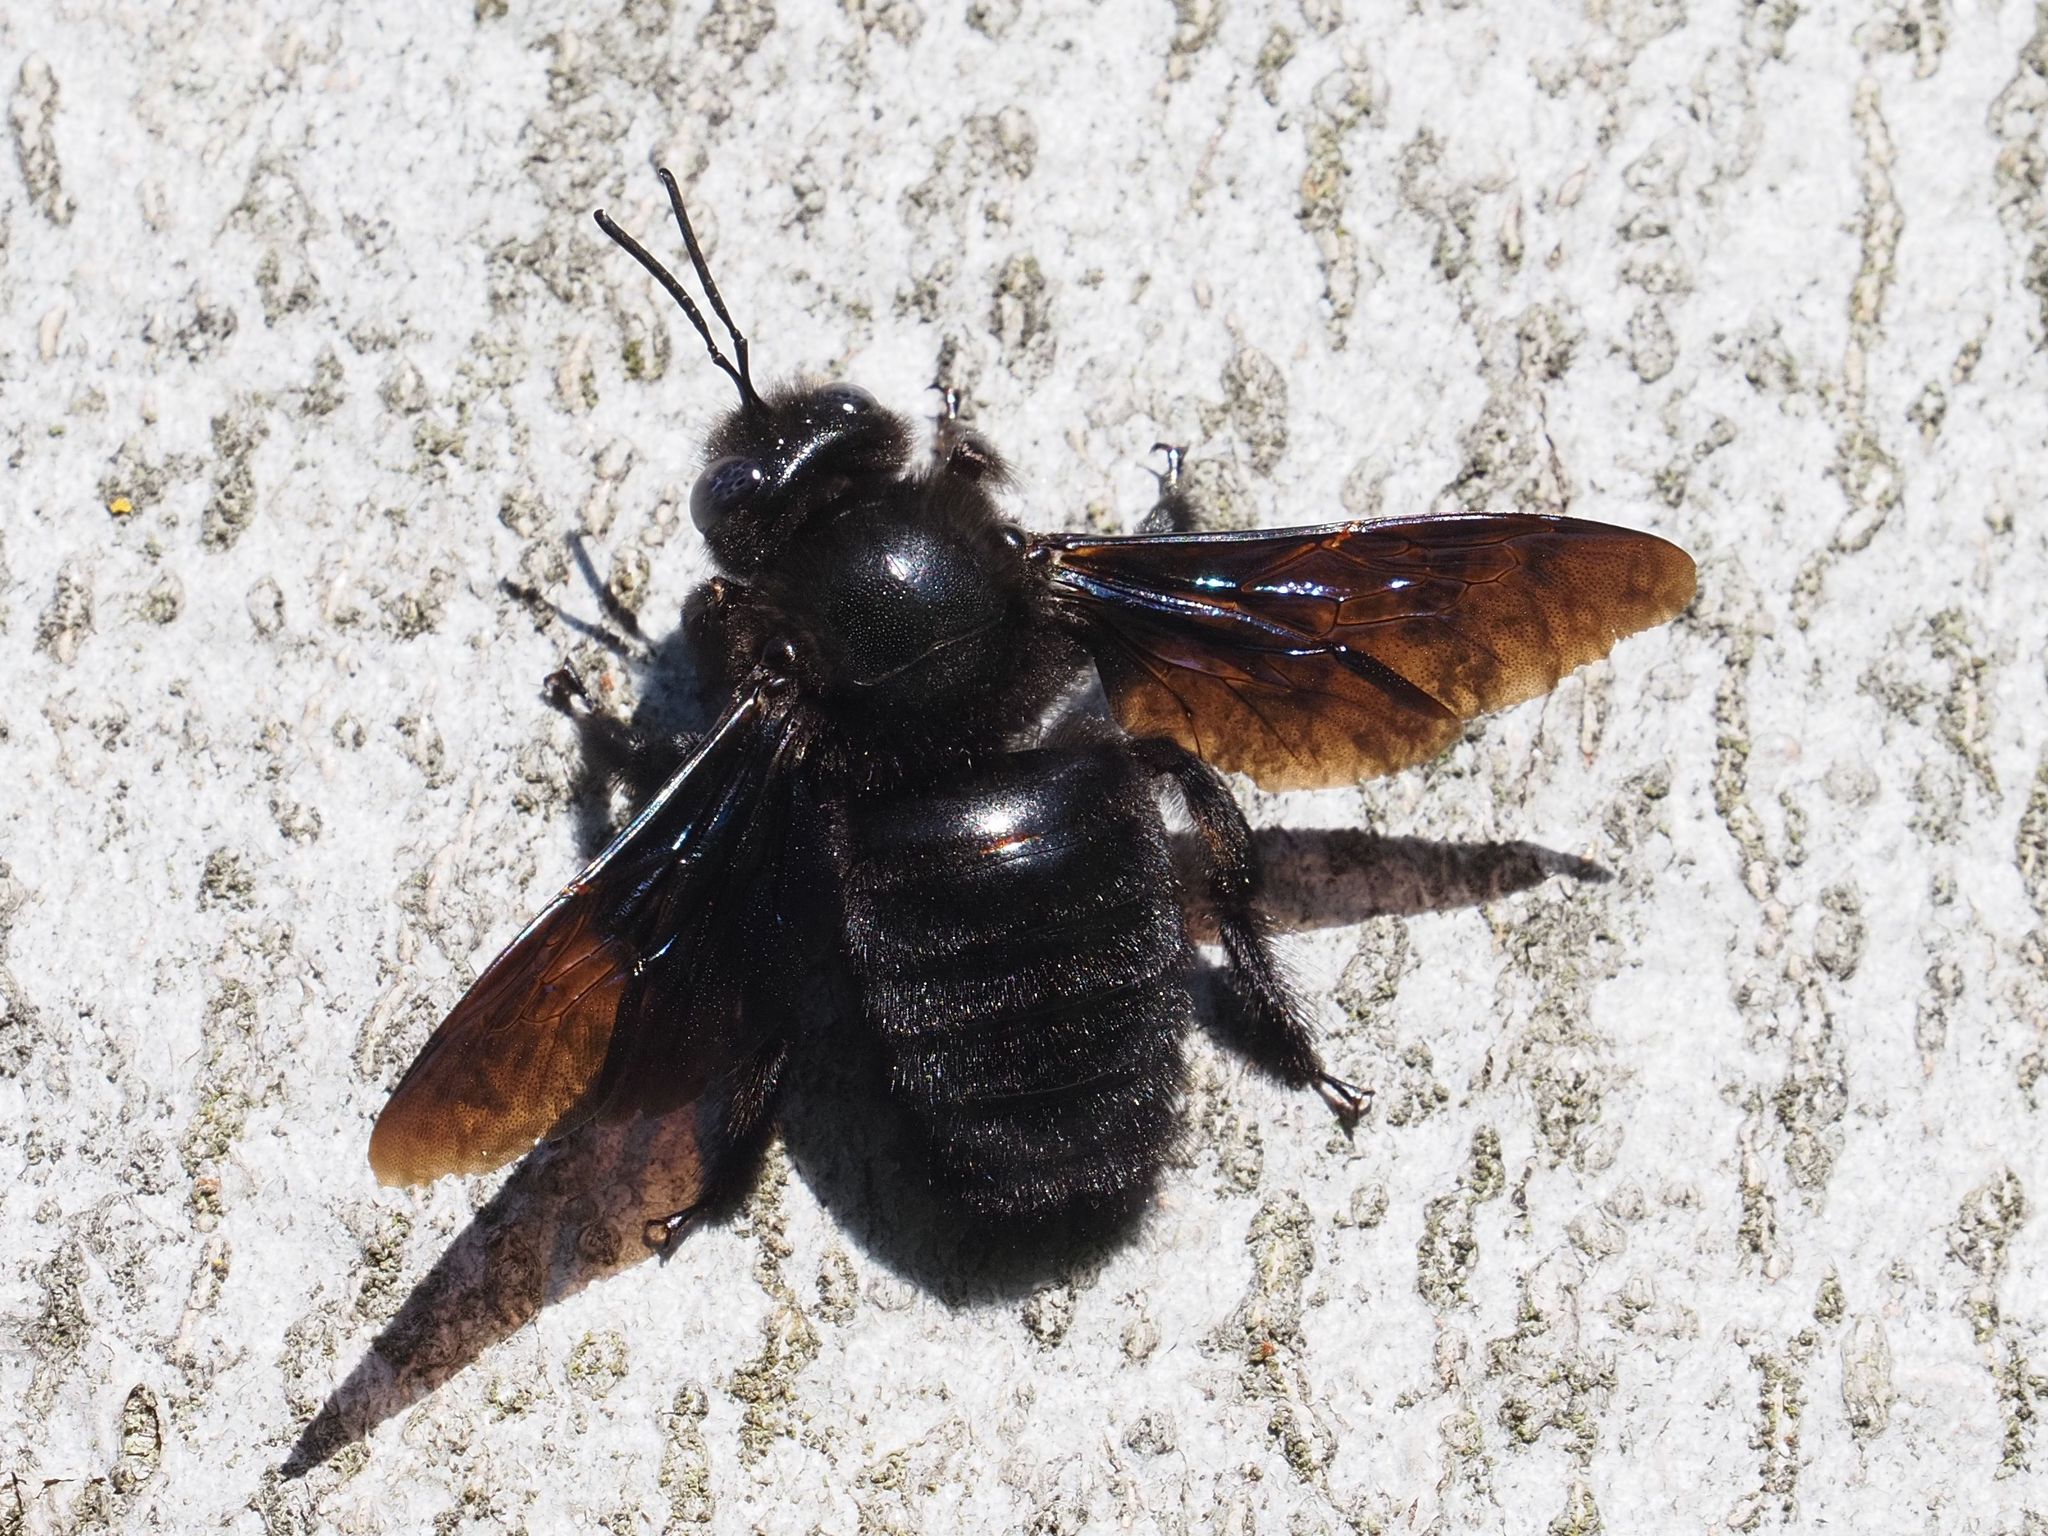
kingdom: Animalia
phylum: Arthropoda
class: Insecta
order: Hymenoptera
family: Apidae
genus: Xylocopa
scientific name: Xylocopa valga
